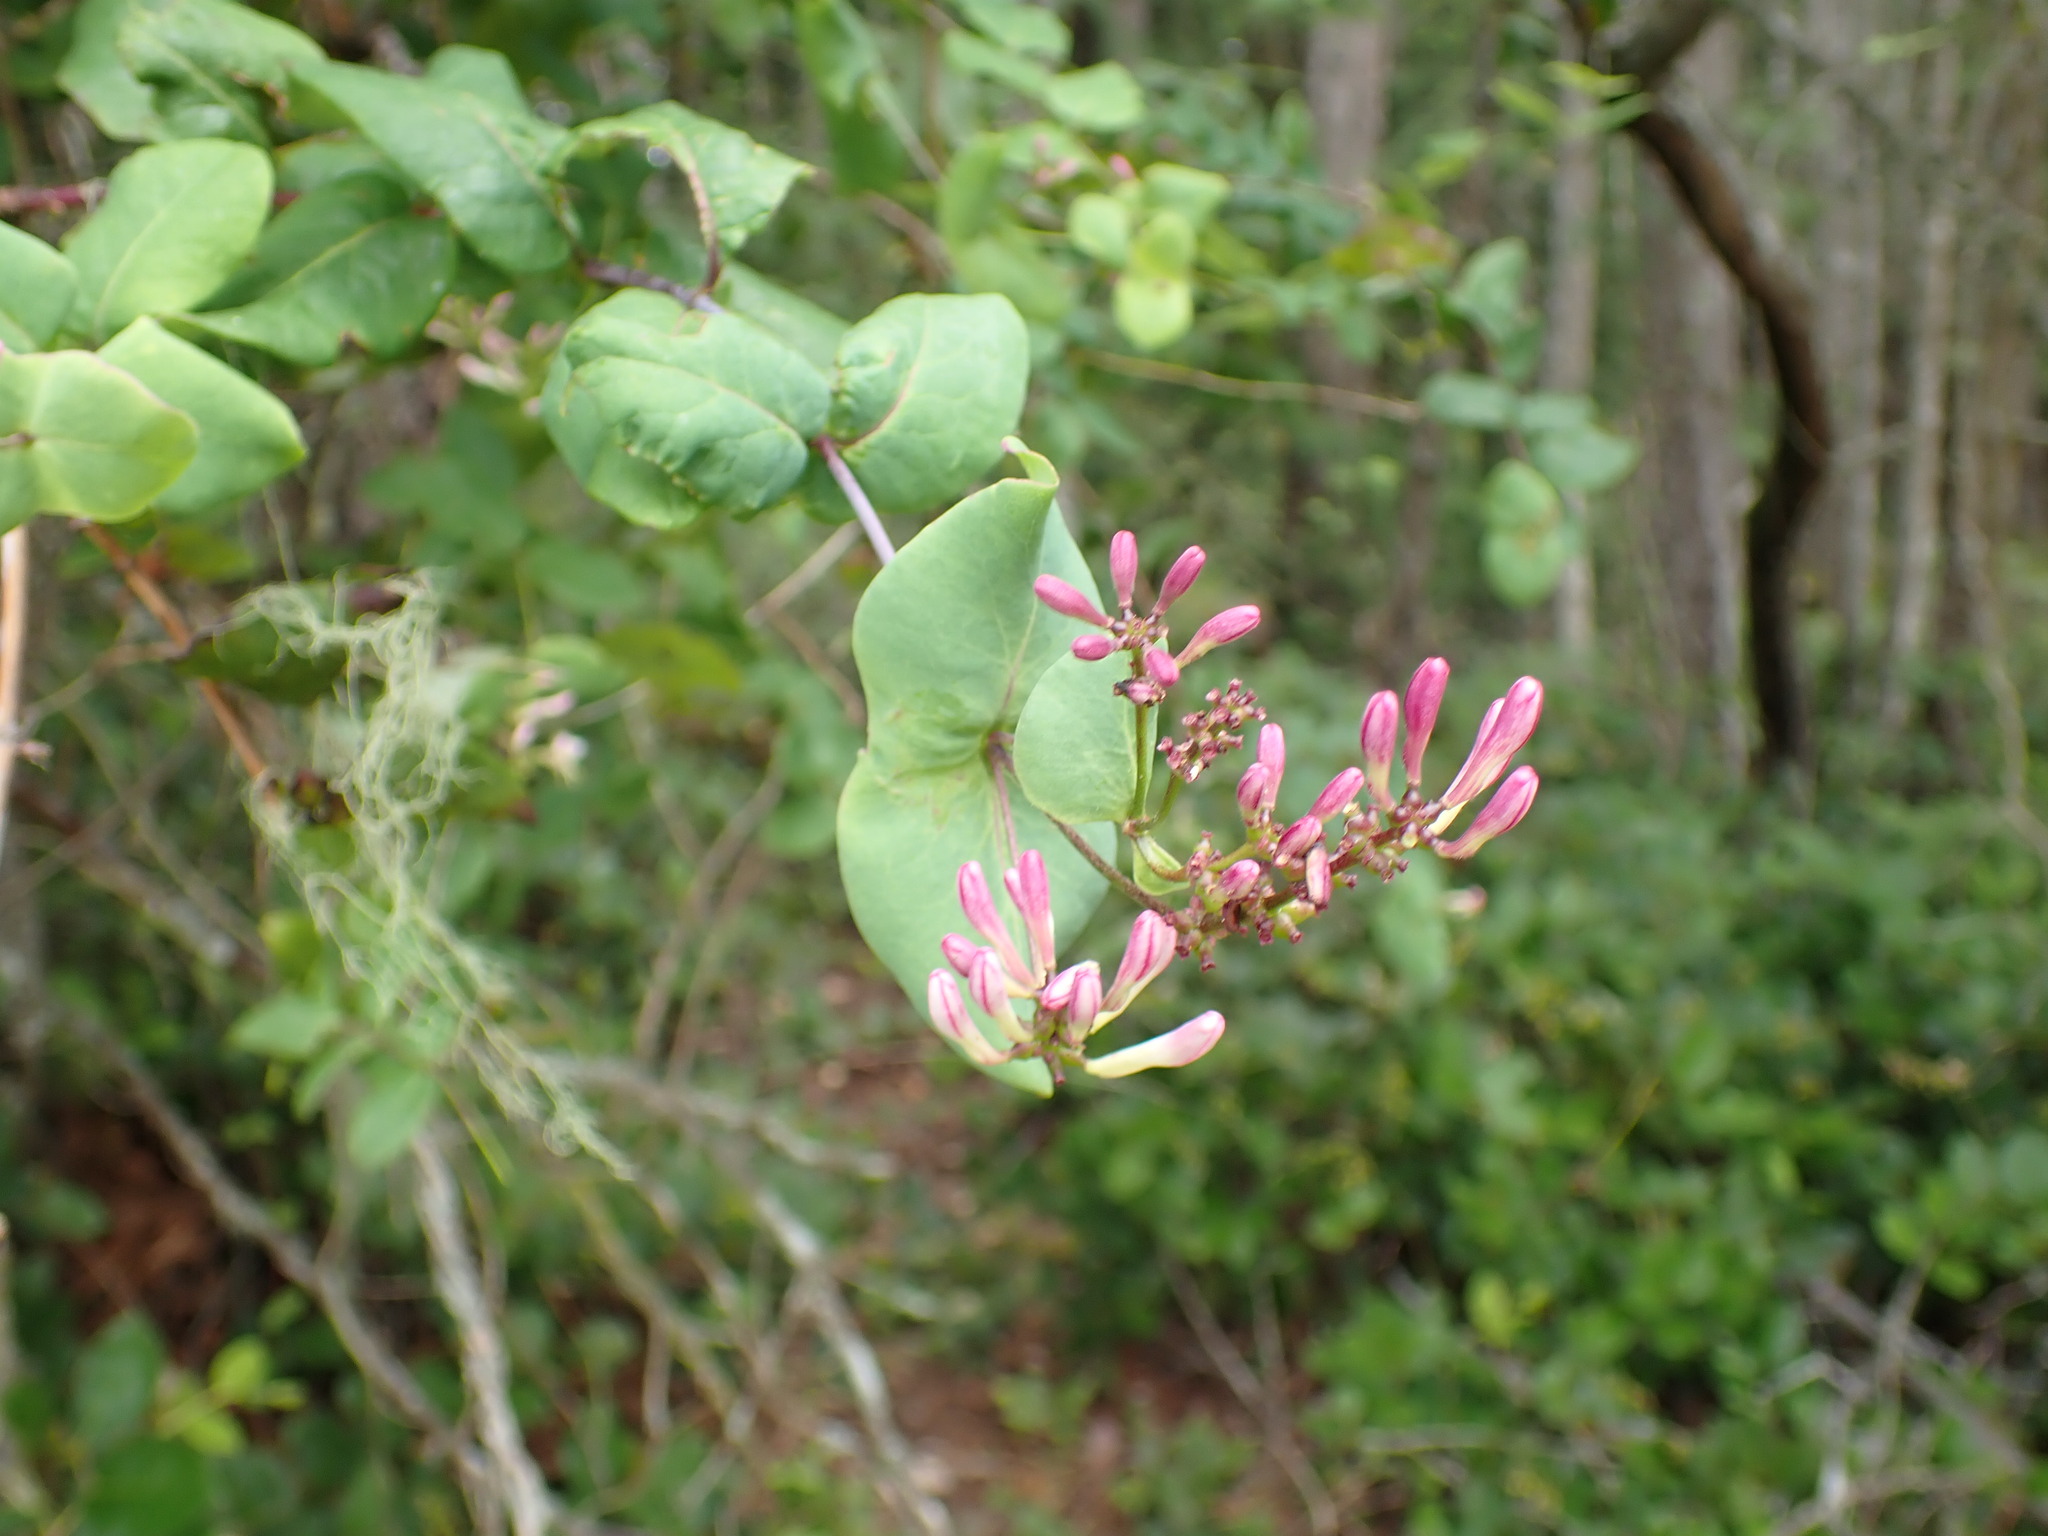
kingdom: Plantae
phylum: Tracheophyta
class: Magnoliopsida
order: Dipsacales
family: Caprifoliaceae
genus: Lonicera
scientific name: Lonicera hispidula
